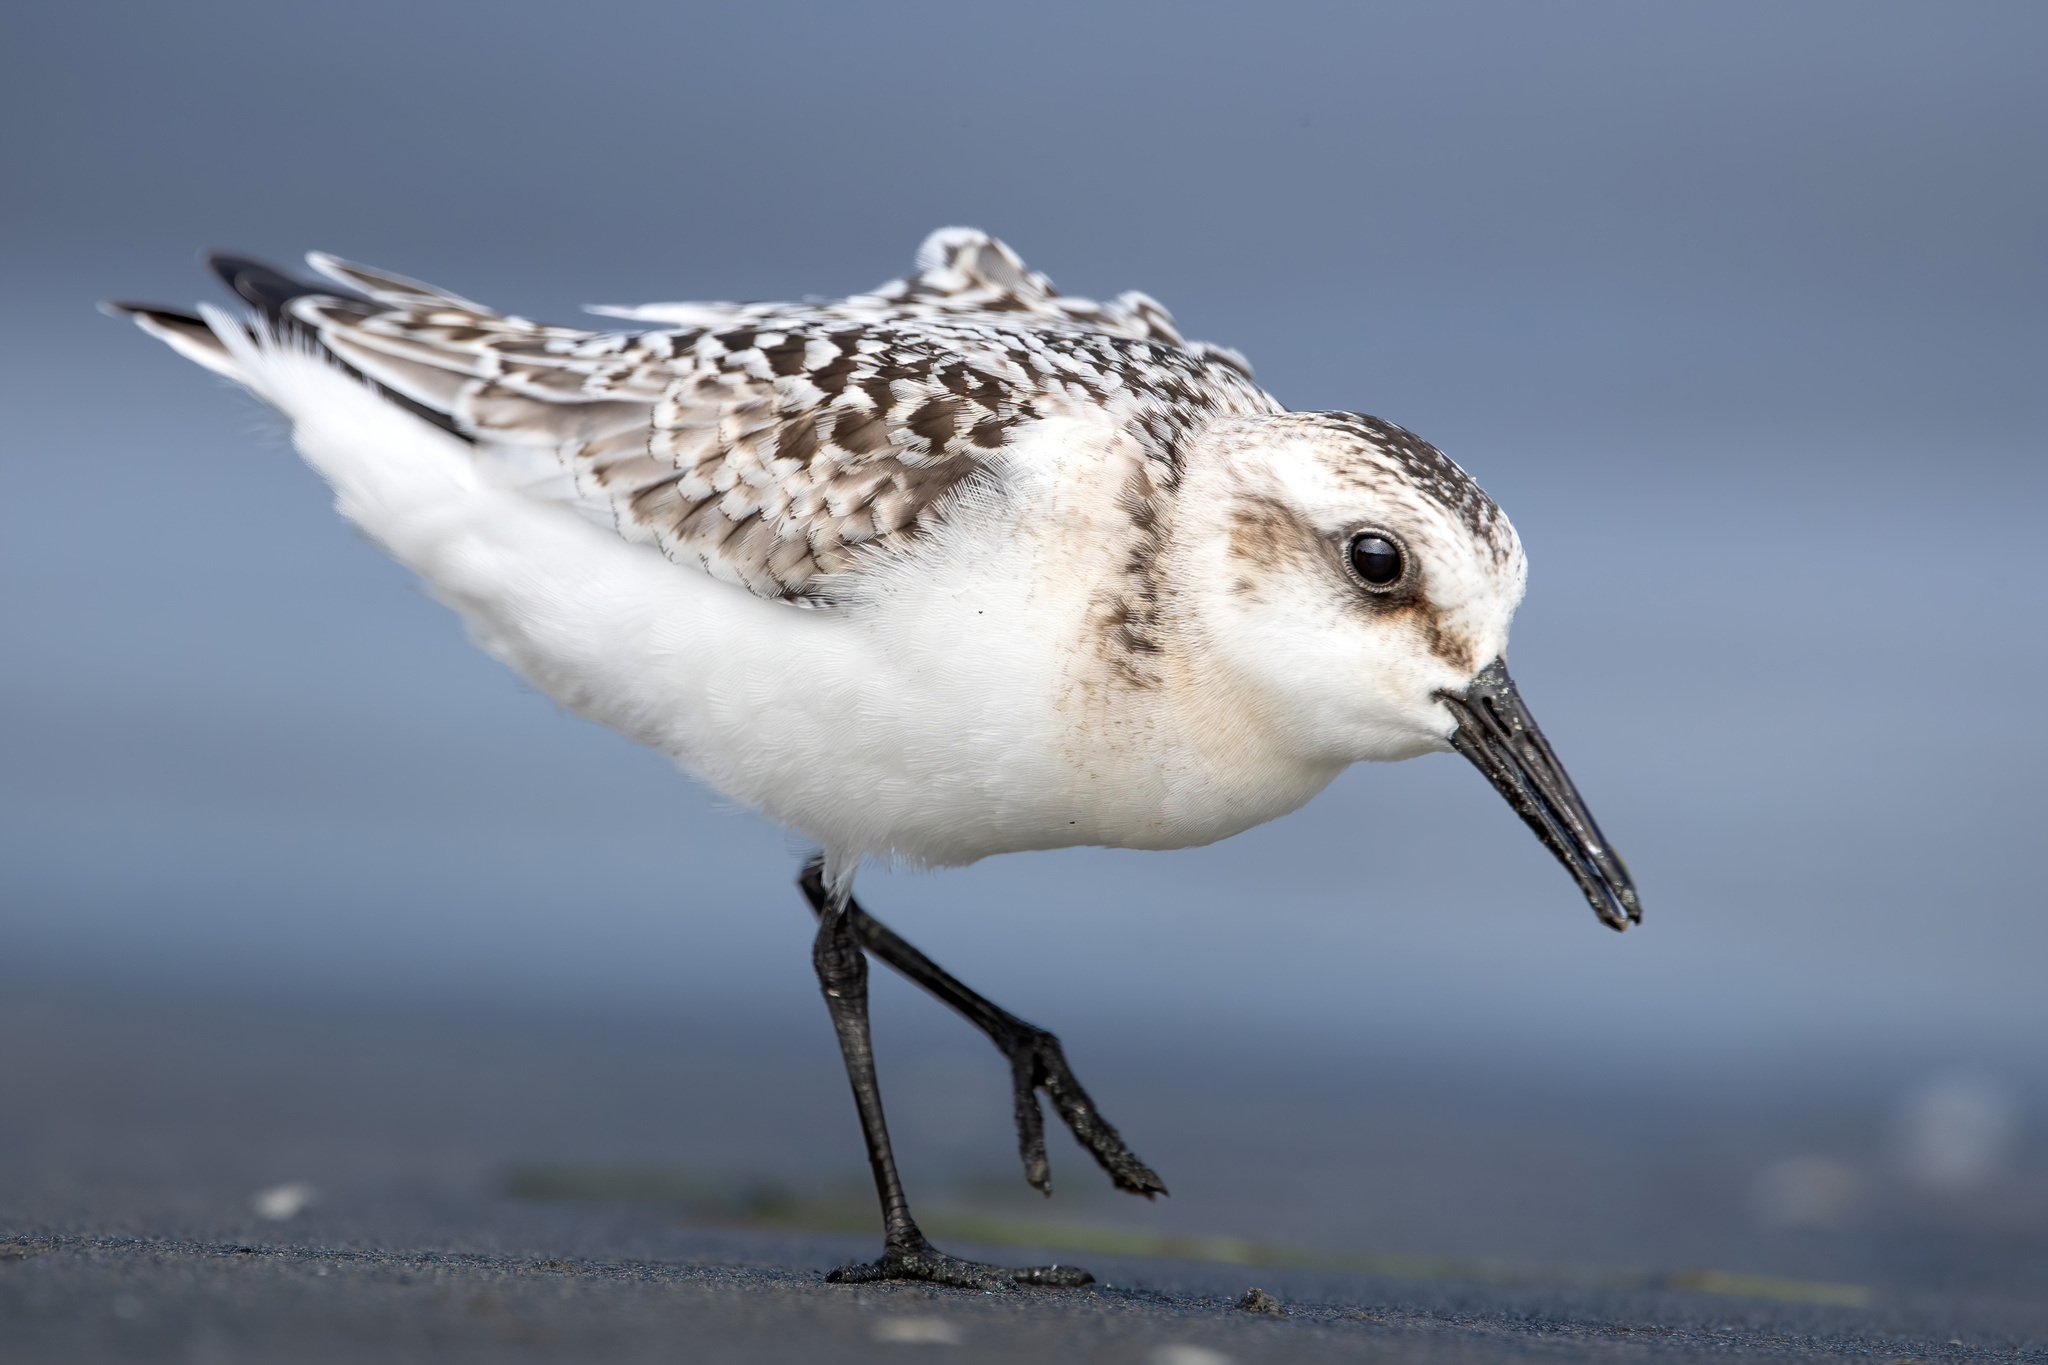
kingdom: Animalia
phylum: Chordata
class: Aves
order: Charadriiformes
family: Scolopacidae
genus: Calidris
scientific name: Calidris alba
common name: Sanderling
